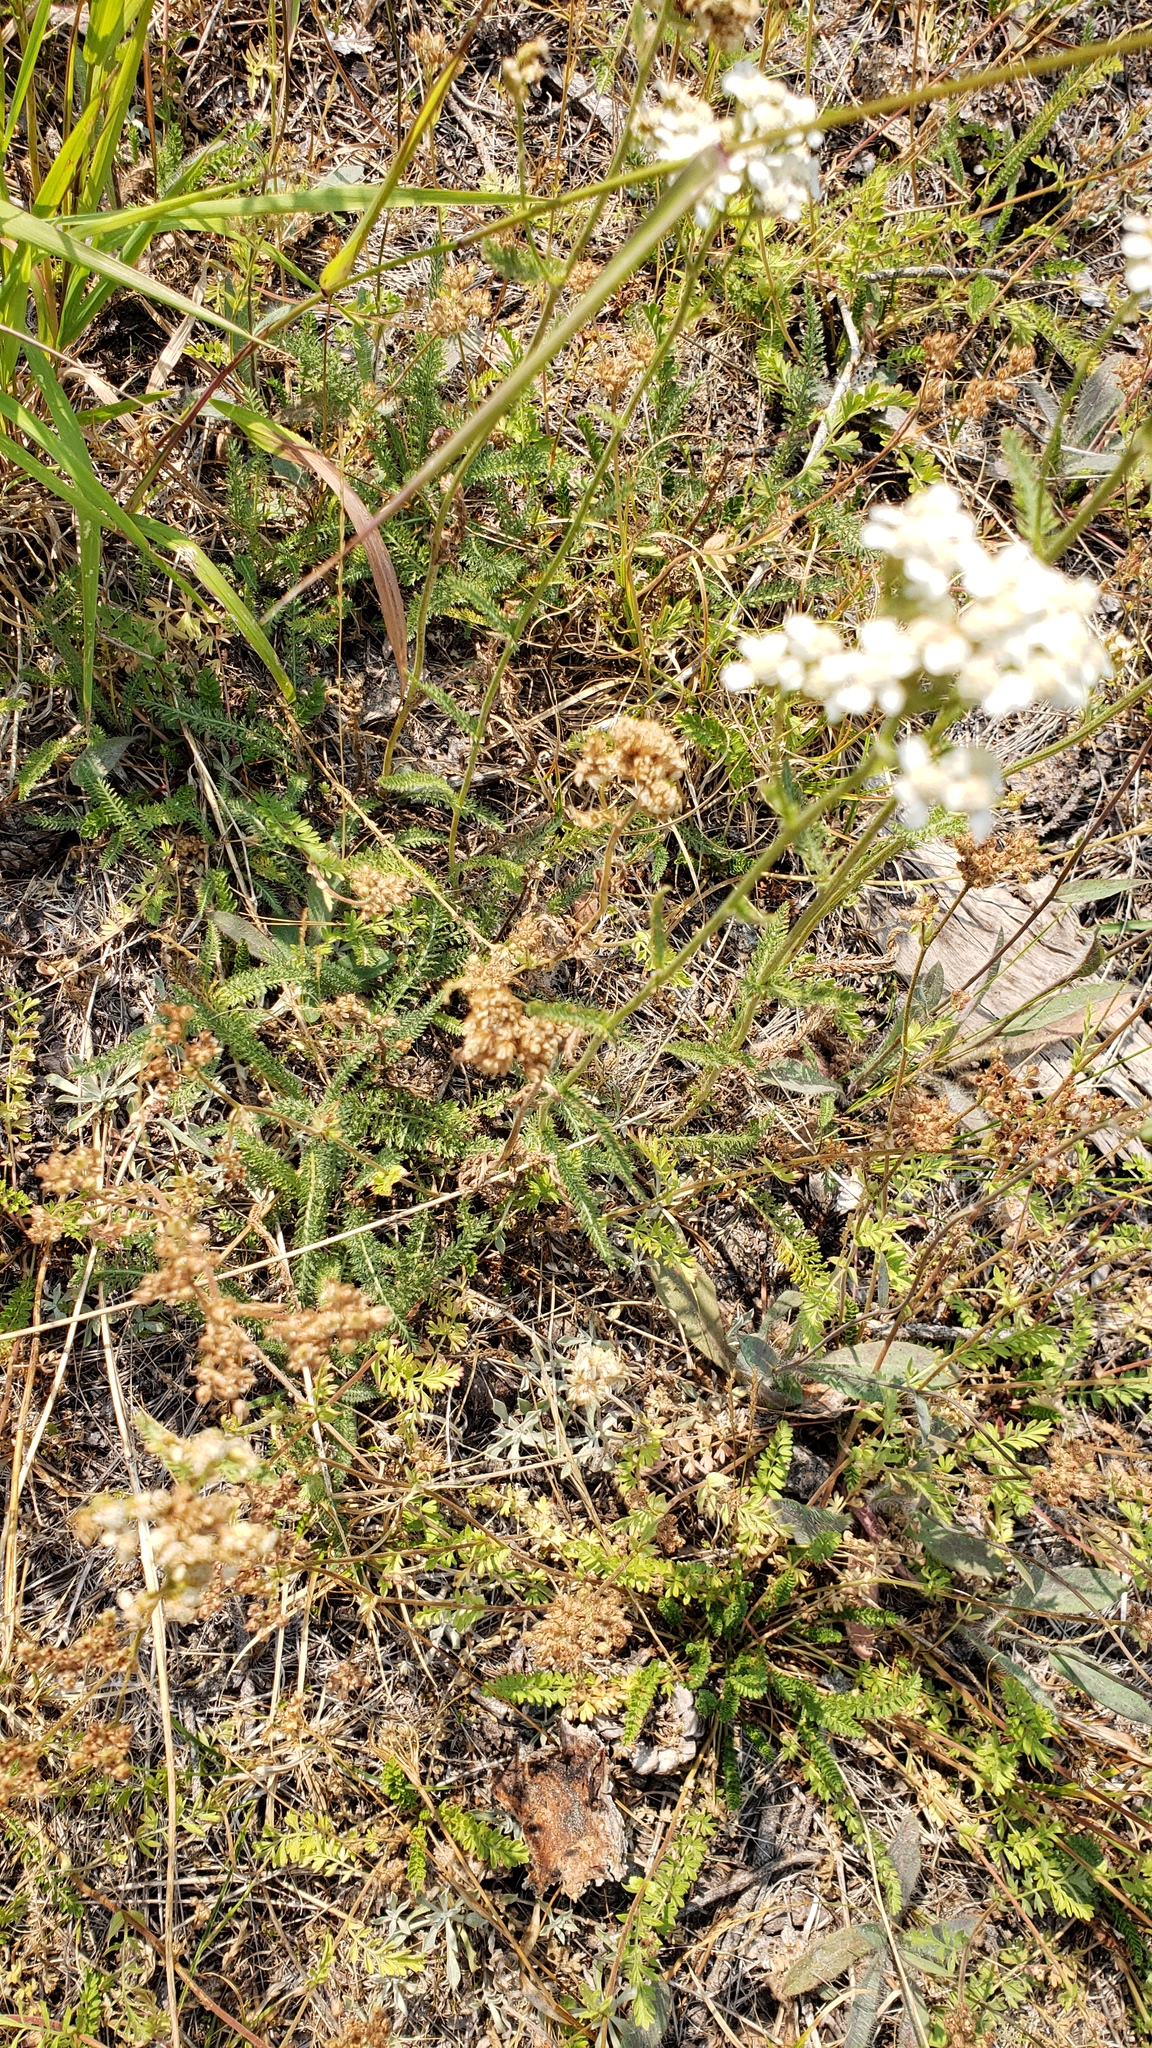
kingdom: Plantae
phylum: Tracheophyta
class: Magnoliopsida
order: Asterales
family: Asteraceae
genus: Achillea
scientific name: Achillea millefolium
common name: Yarrow
